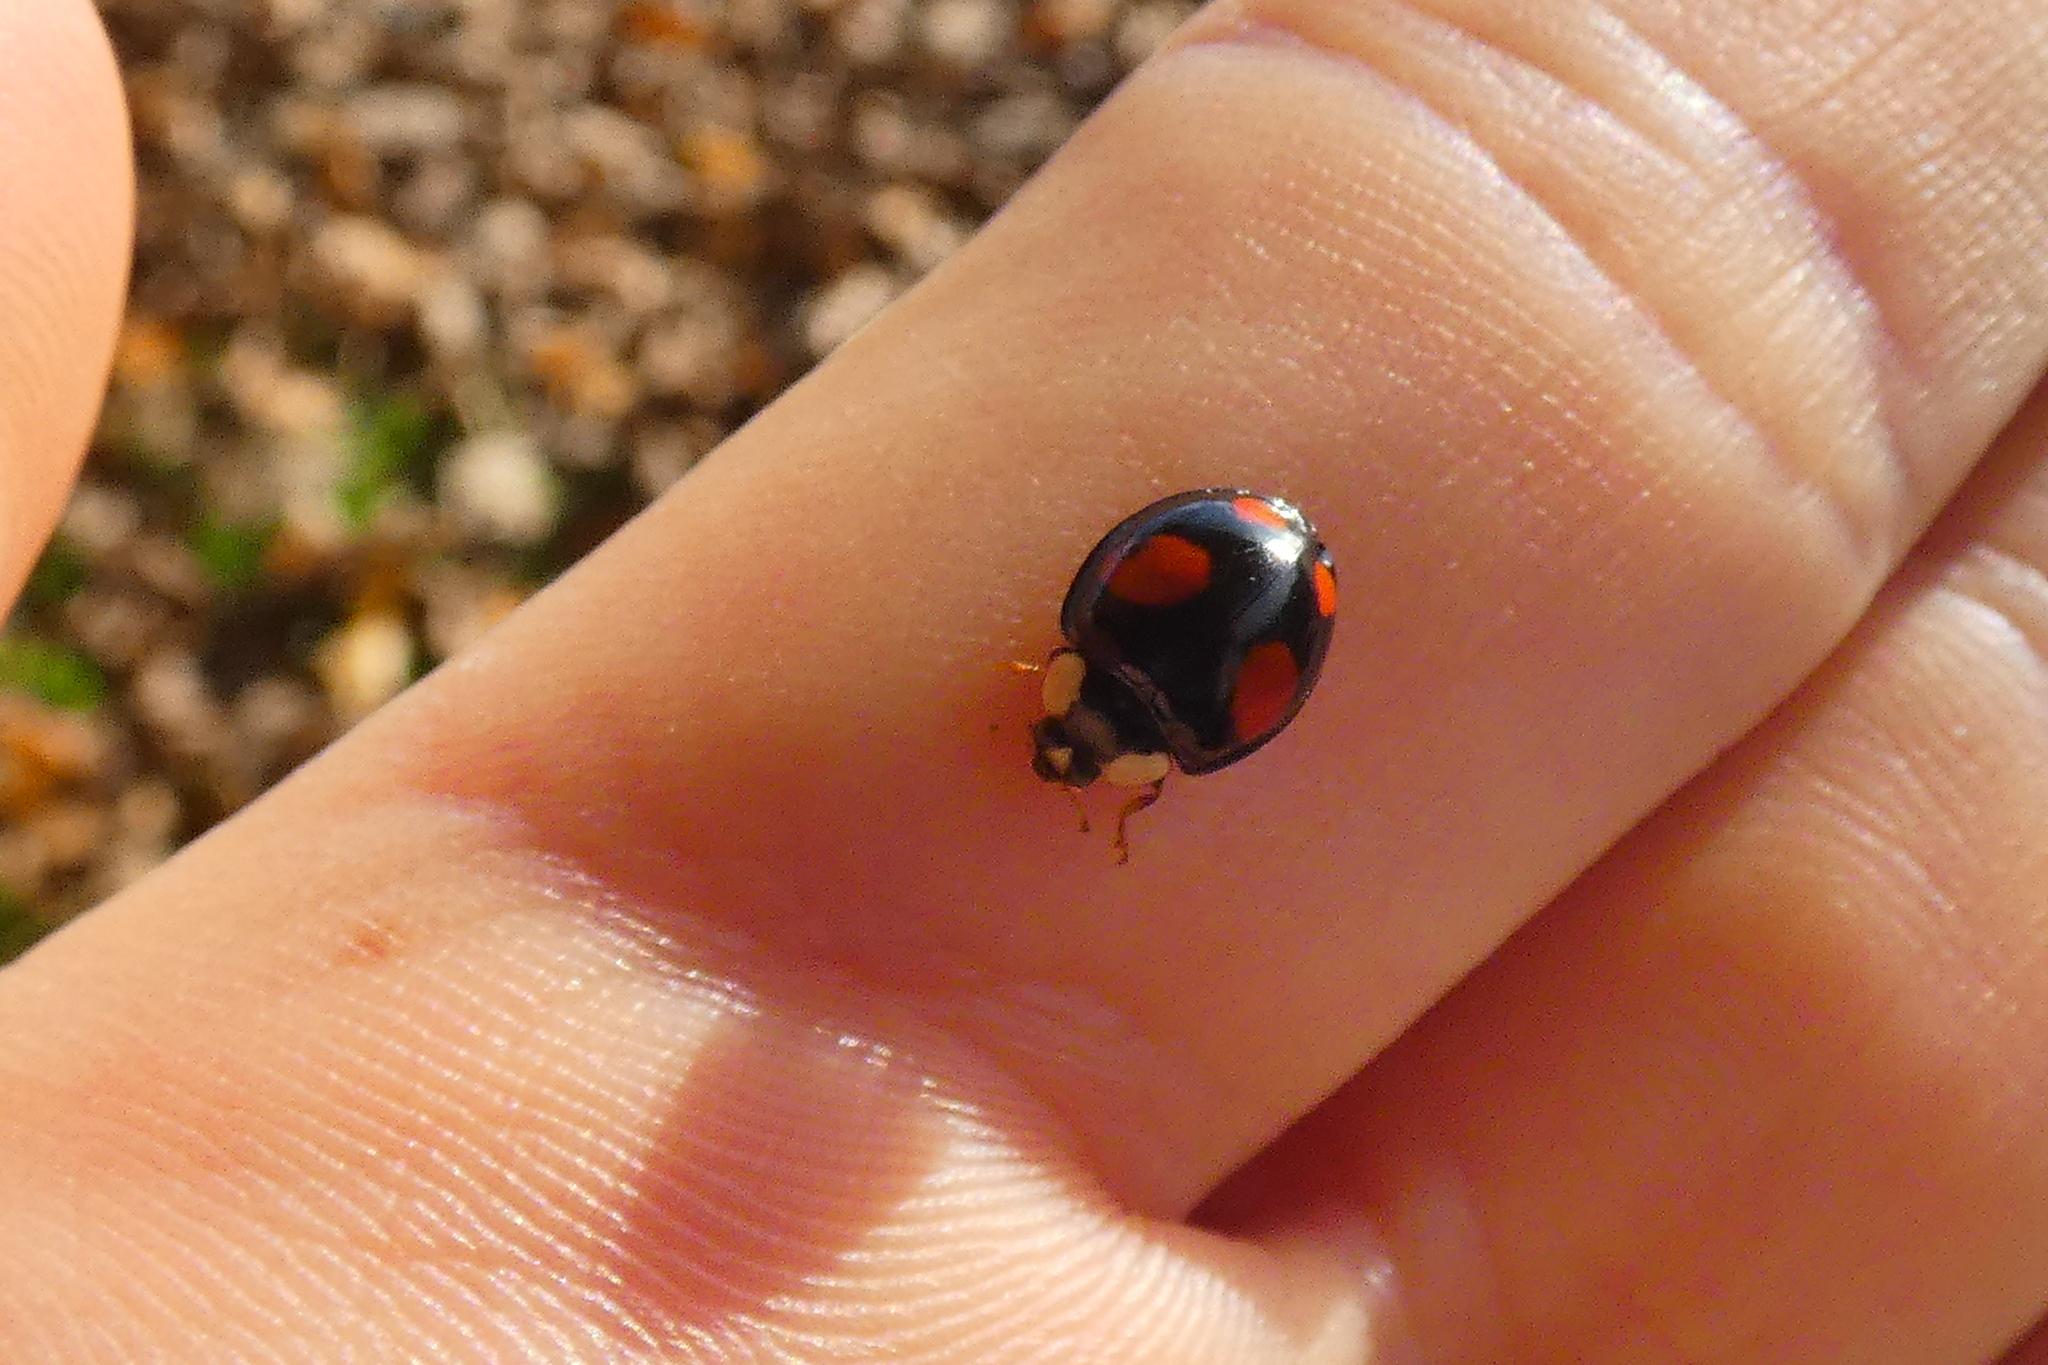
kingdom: Animalia
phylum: Arthropoda
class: Insecta
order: Coleoptera
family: Coccinellidae
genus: Harmonia
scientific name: Harmonia axyridis
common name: Harlequin ladybird
